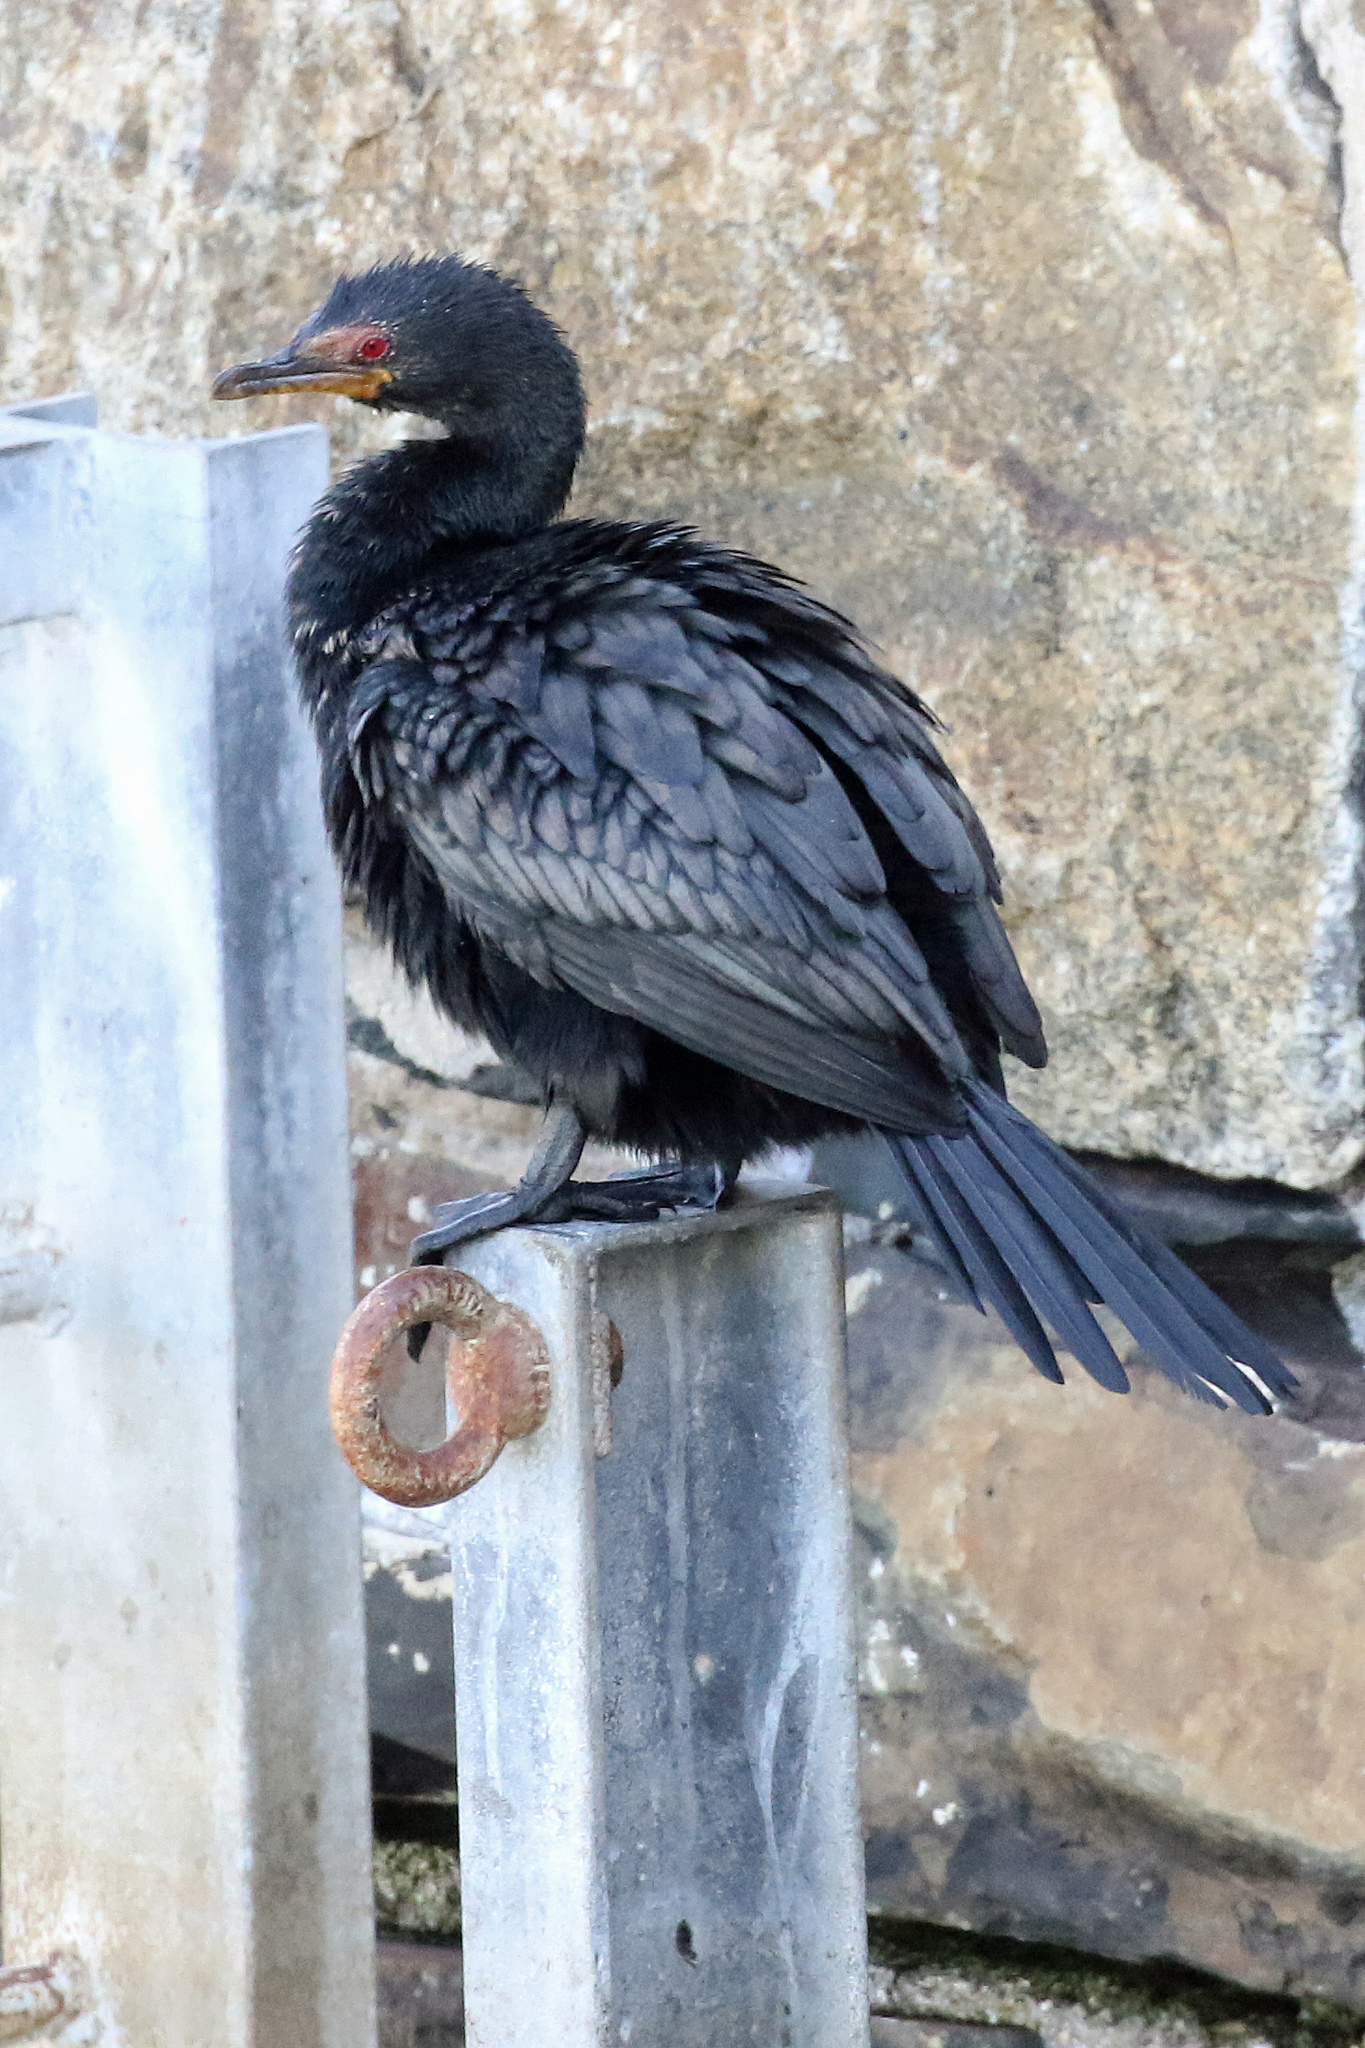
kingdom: Animalia
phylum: Chordata
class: Aves
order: Suliformes
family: Phalacrocoracidae
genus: Microcarbo
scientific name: Microcarbo coronatus
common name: Crowned cormorant
